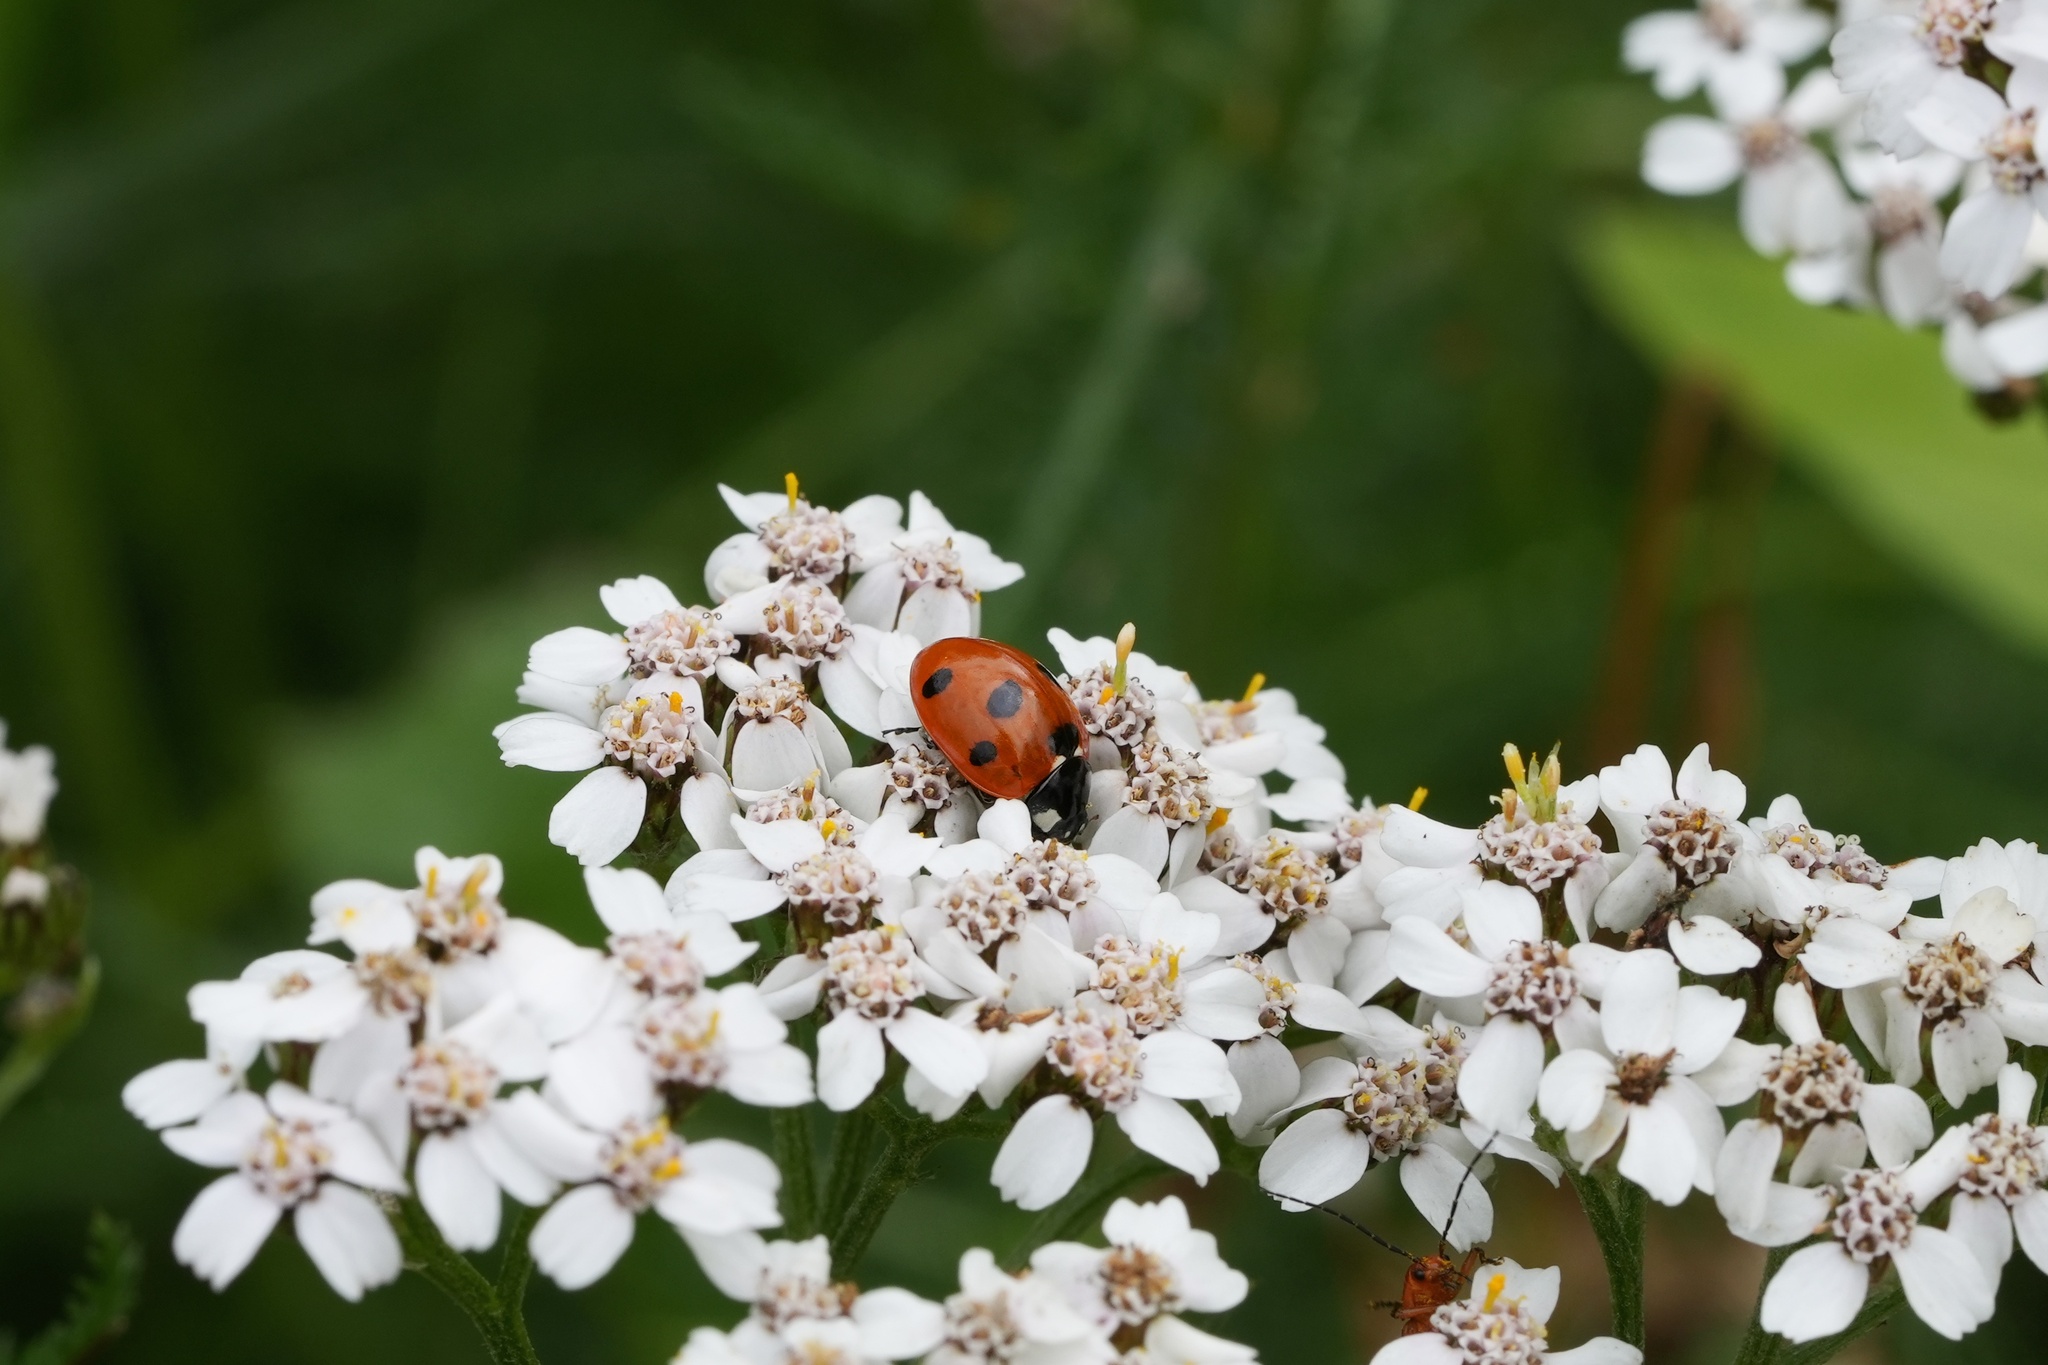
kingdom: Animalia
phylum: Arthropoda
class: Insecta
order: Coleoptera
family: Coccinellidae
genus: Coccinella
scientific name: Coccinella septempunctata
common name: Sevenspotted lady beetle
